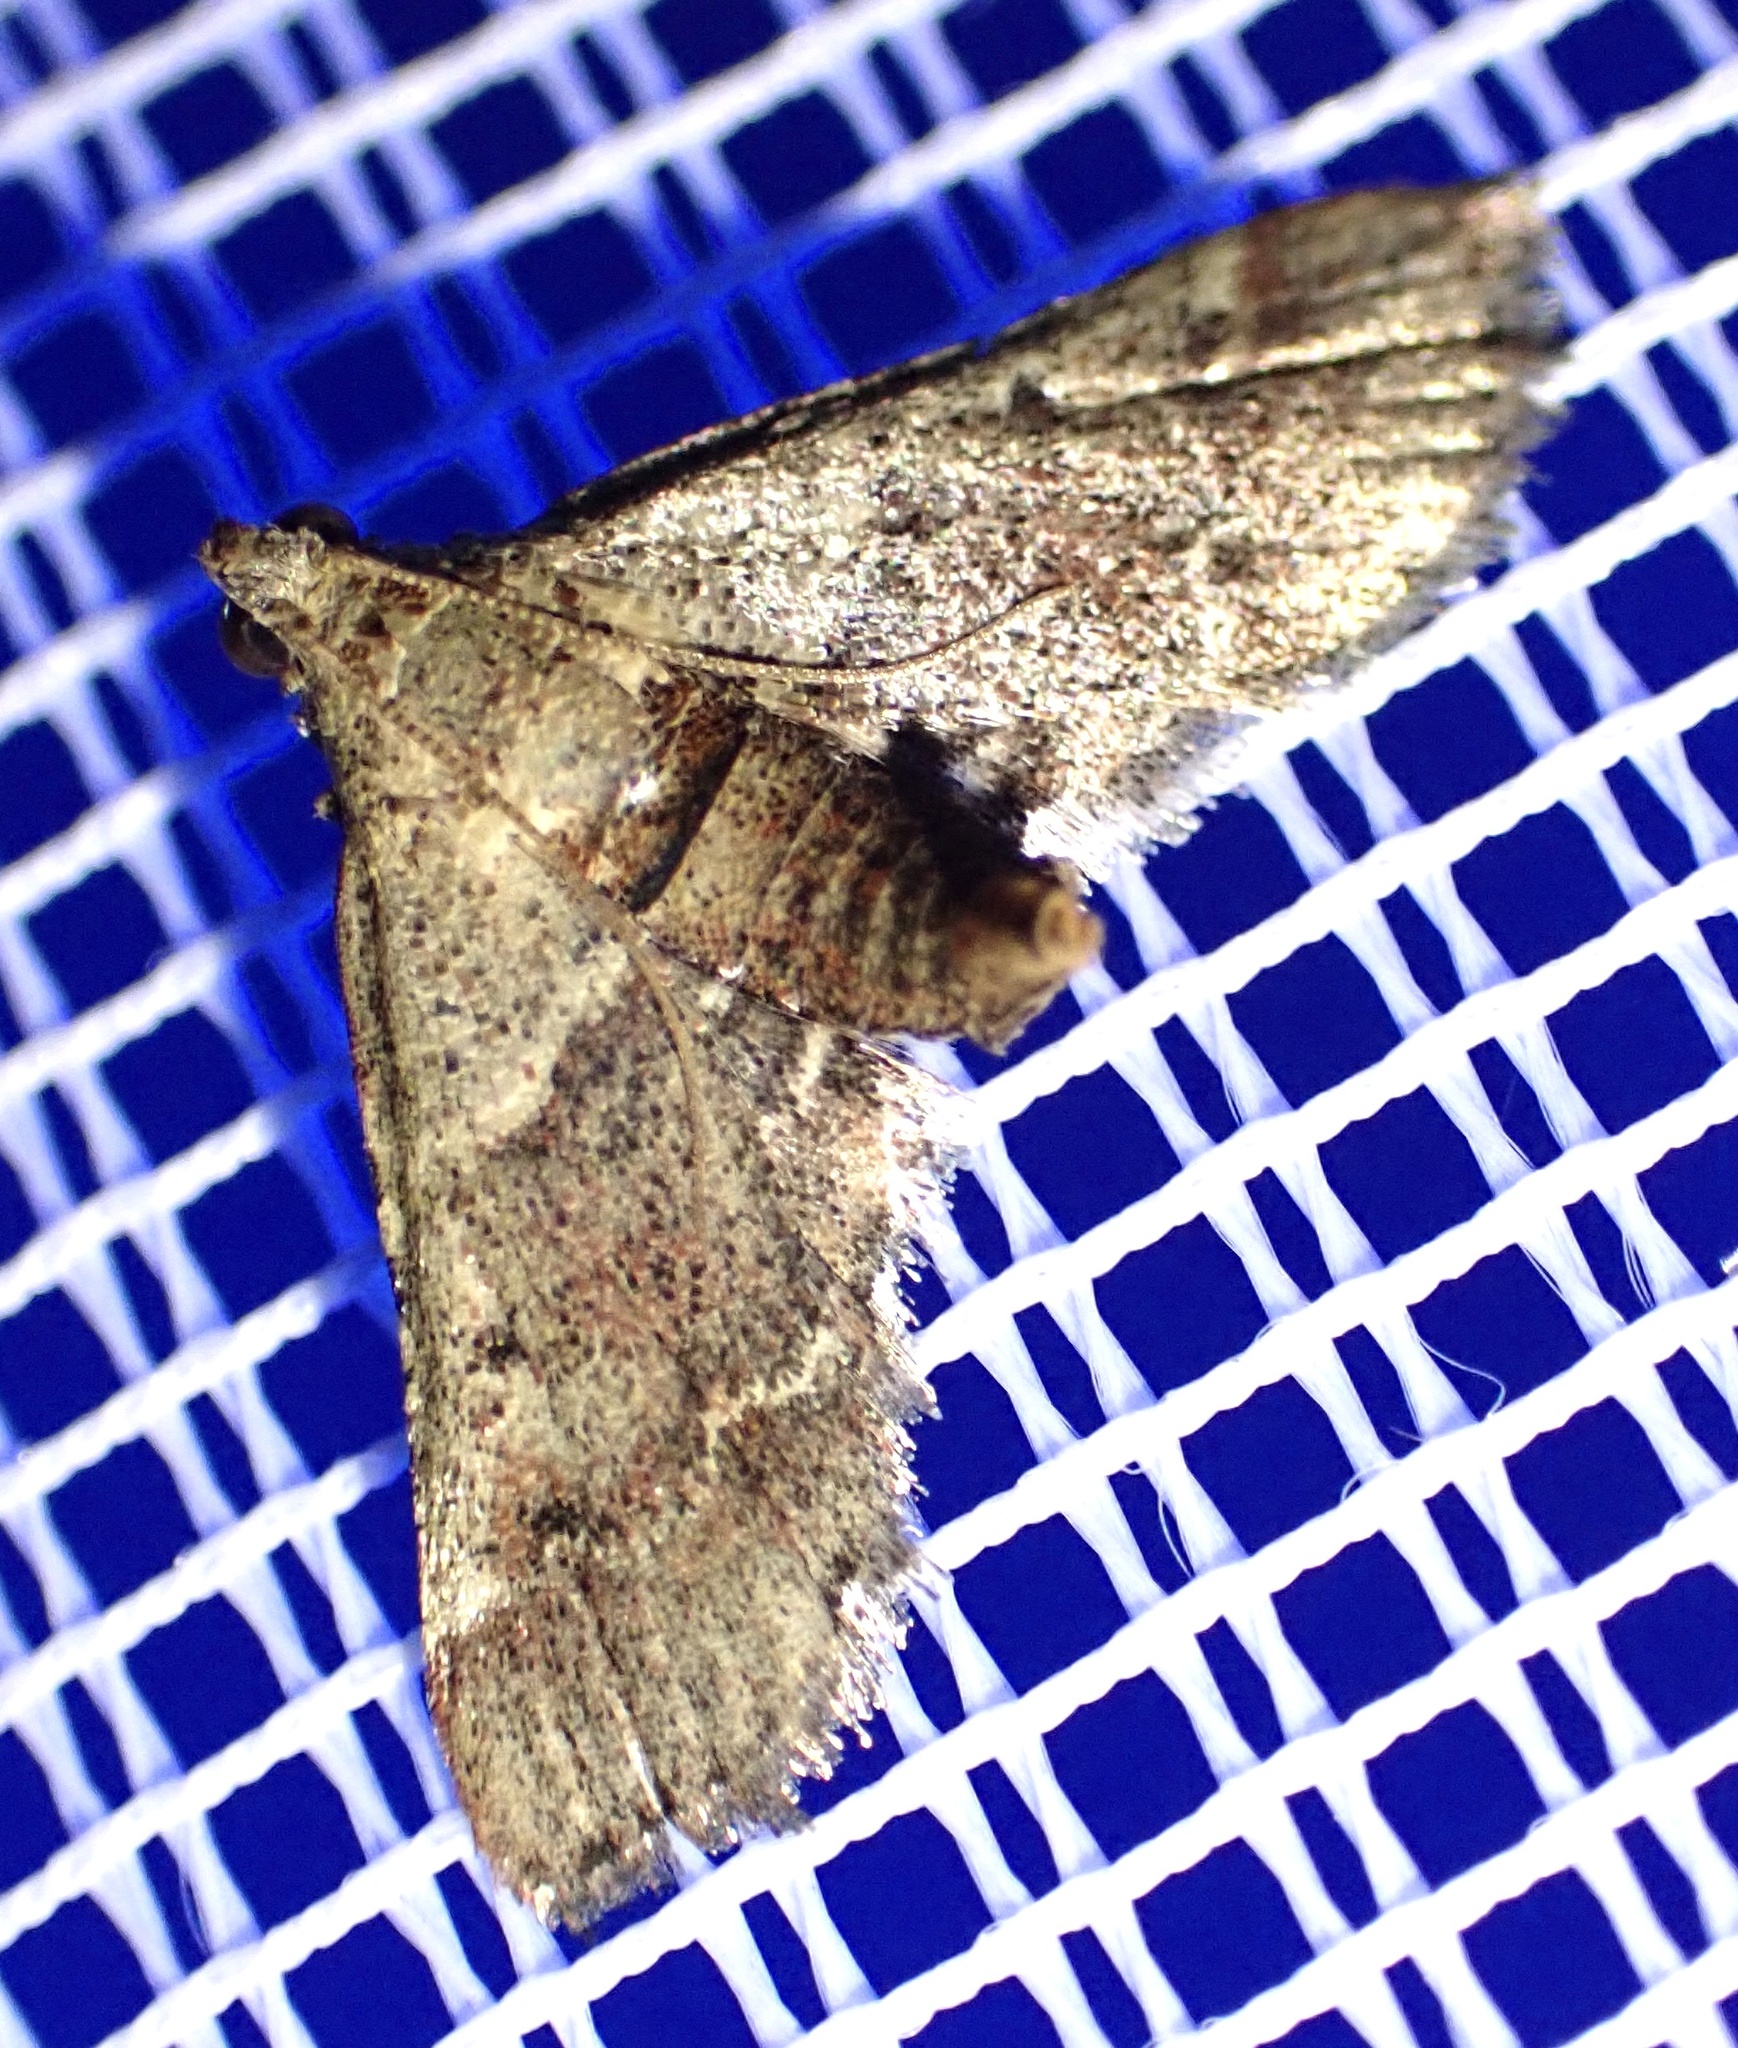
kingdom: Animalia
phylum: Arthropoda
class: Insecta
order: Lepidoptera
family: Pyralidae
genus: Tegulifera
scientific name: Tegulifera tristiculalis
